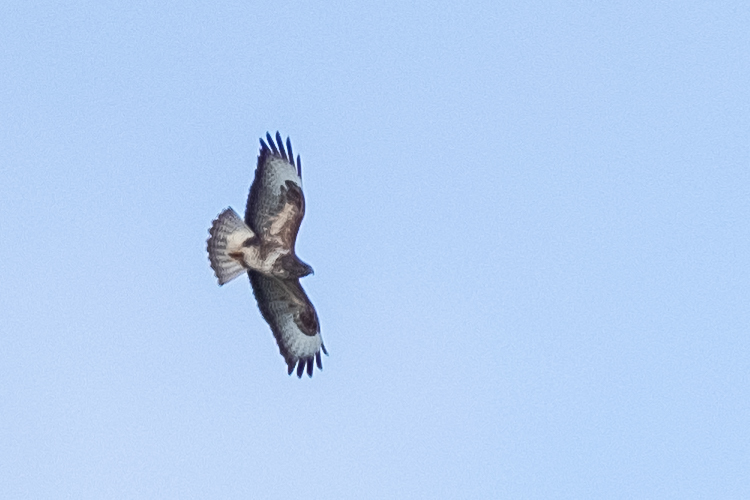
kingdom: Animalia
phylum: Chordata
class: Aves
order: Accipitriformes
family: Accipitridae
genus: Buteo
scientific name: Buteo buteo
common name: Common buzzard
